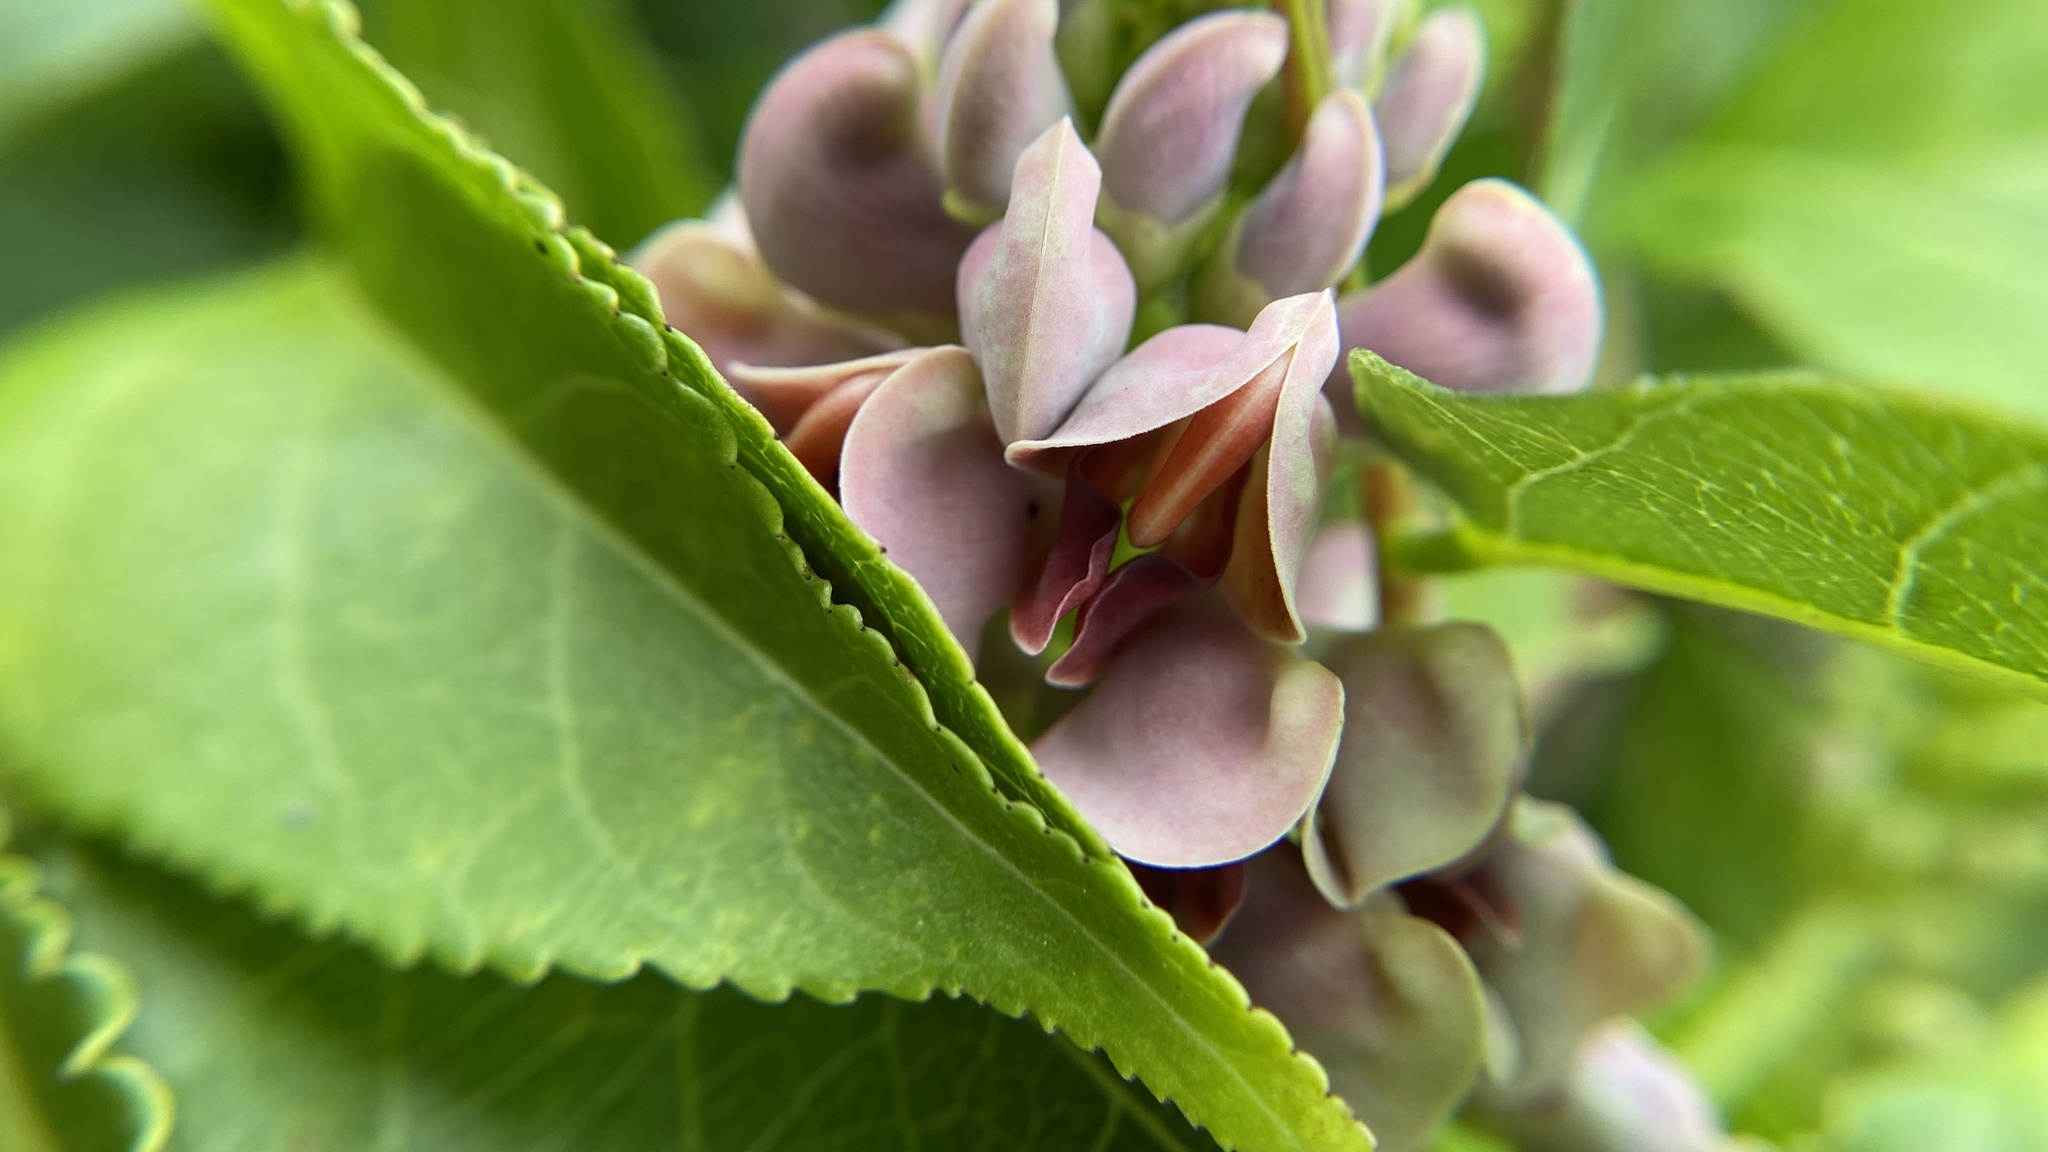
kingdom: Plantae
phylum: Tracheophyta
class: Magnoliopsida
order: Fabales
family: Fabaceae
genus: Apios
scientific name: Apios americana
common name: American potato-bean
